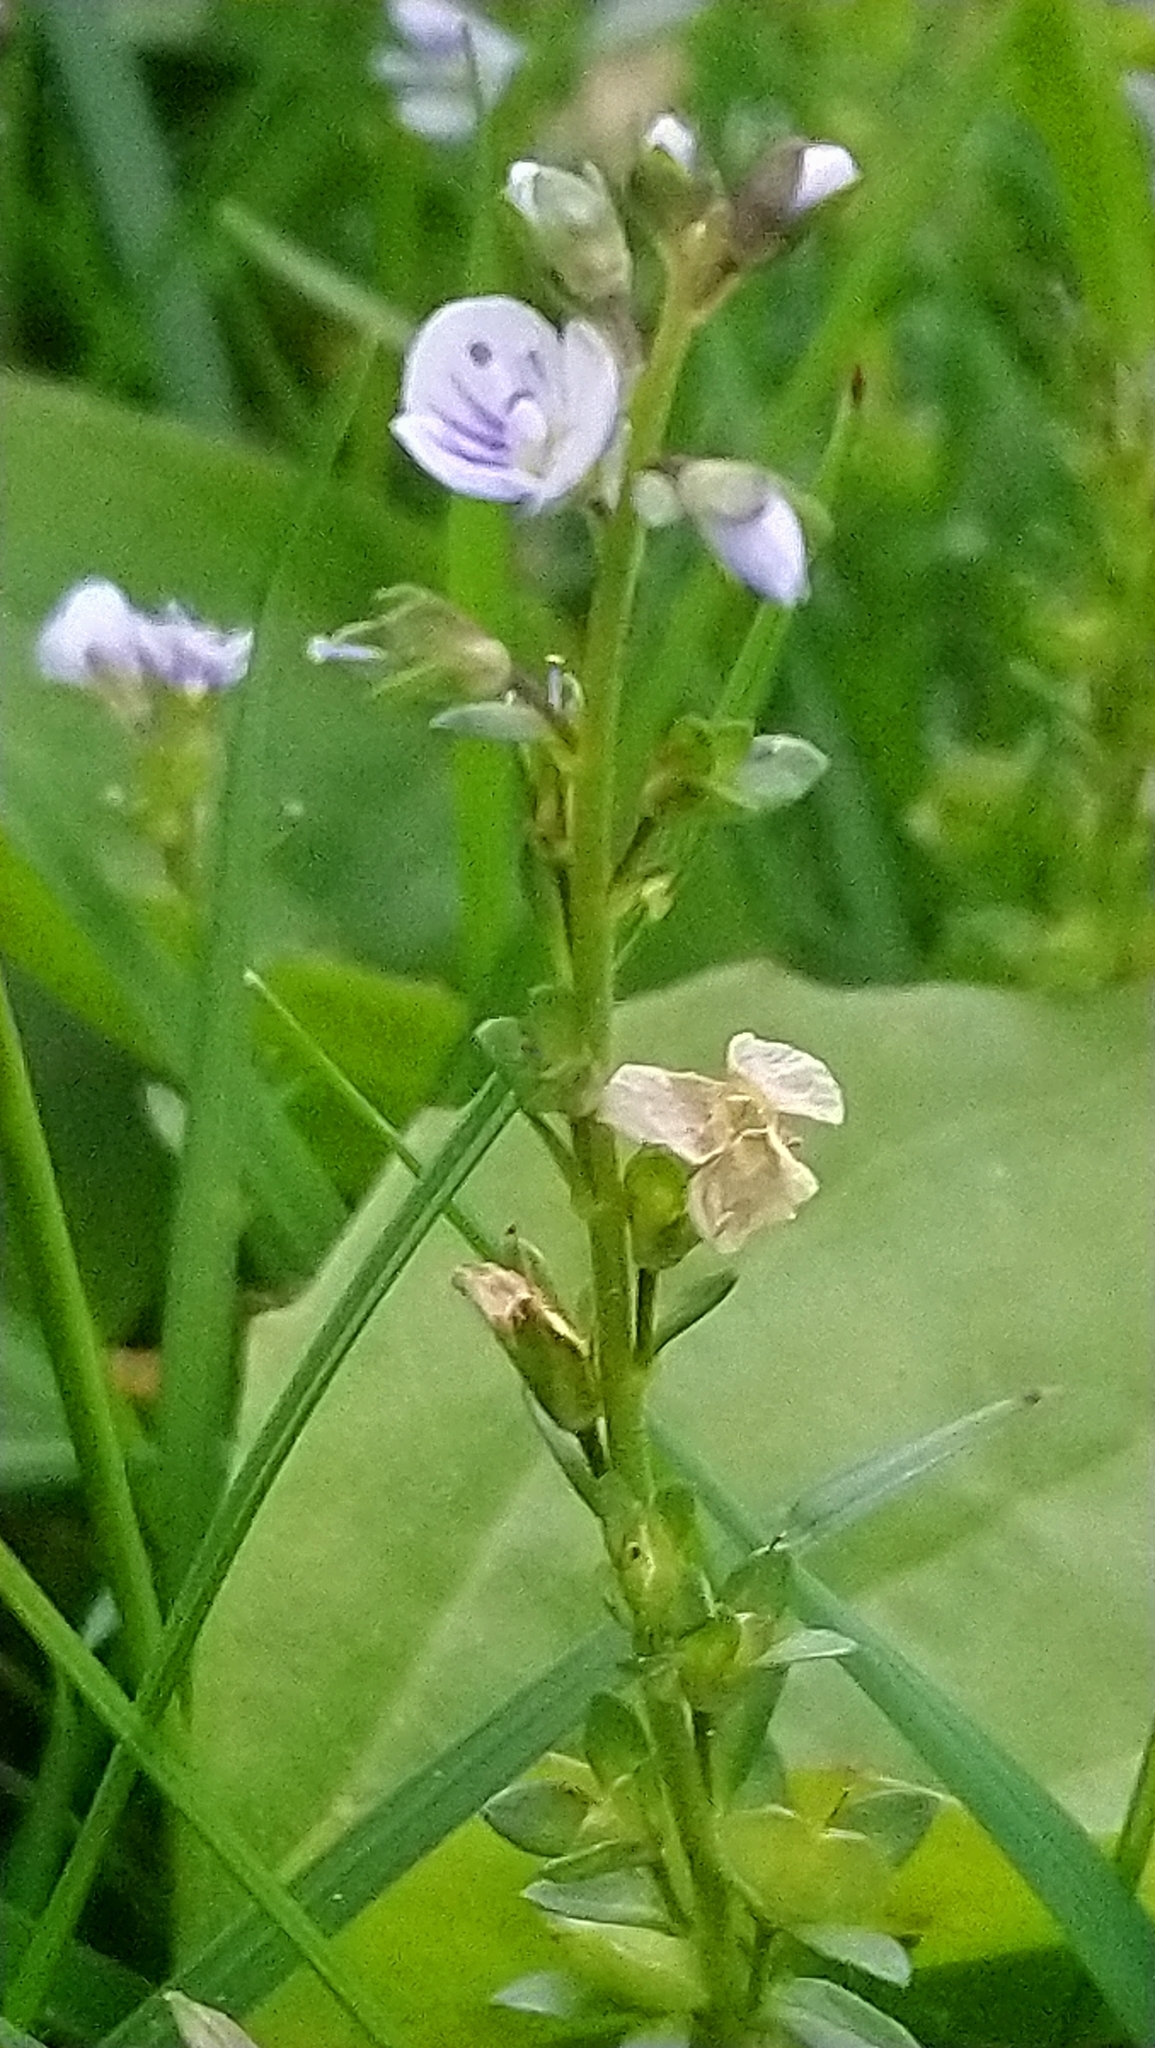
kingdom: Plantae
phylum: Tracheophyta
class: Magnoliopsida
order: Lamiales
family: Plantaginaceae
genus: Veronica
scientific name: Veronica serpyllifolia
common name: Thyme-leaved speedwell
